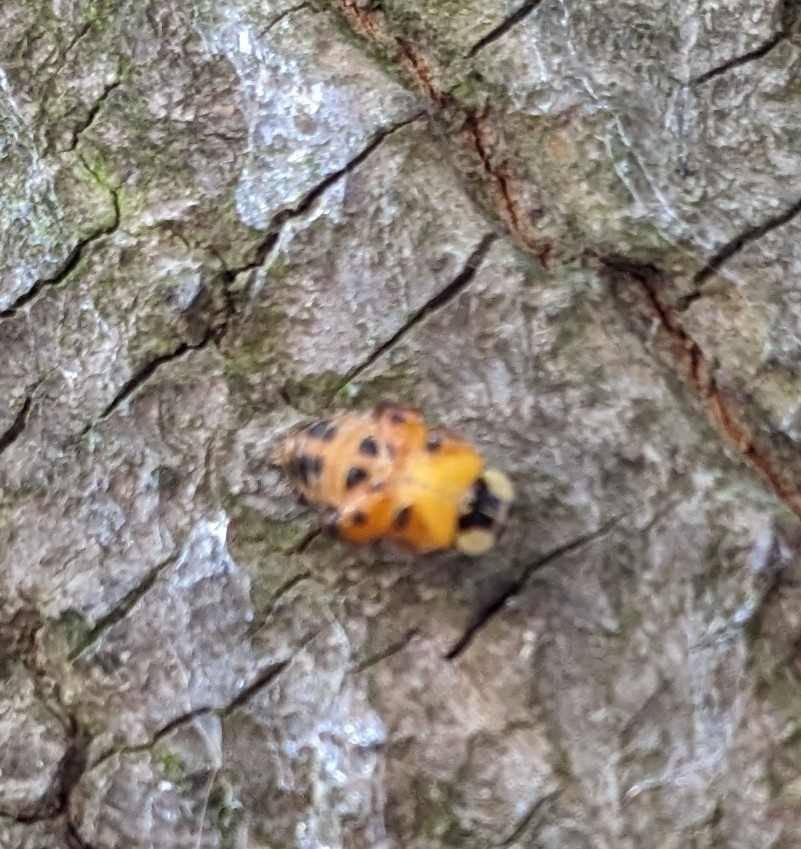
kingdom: Animalia
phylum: Arthropoda
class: Insecta
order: Coleoptera
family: Coccinellidae
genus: Harmonia
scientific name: Harmonia axyridis
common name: Harlequin ladybird
